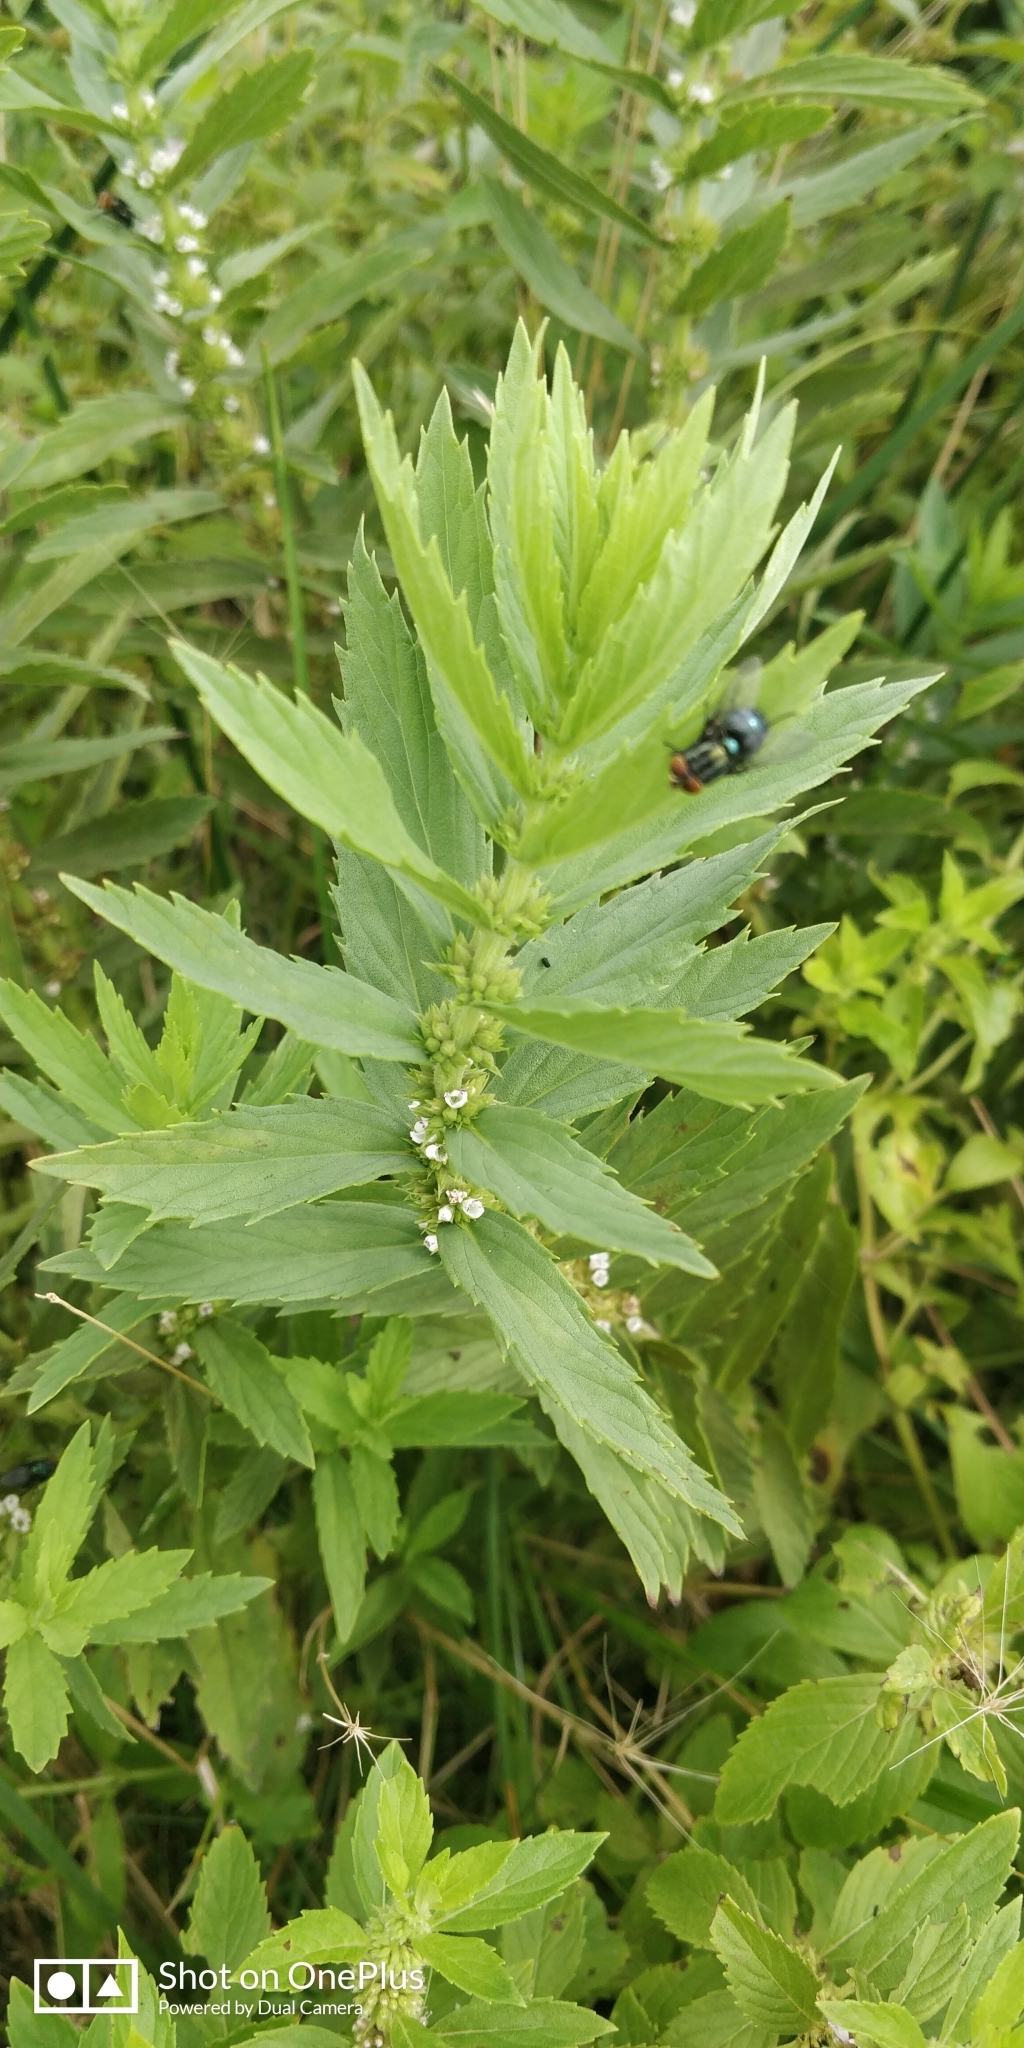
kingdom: Plantae
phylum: Tracheophyta
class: Magnoliopsida
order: Lamiales
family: Lamiaceae
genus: Lycopus
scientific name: Lycopus asper
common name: Rough water-horehound
